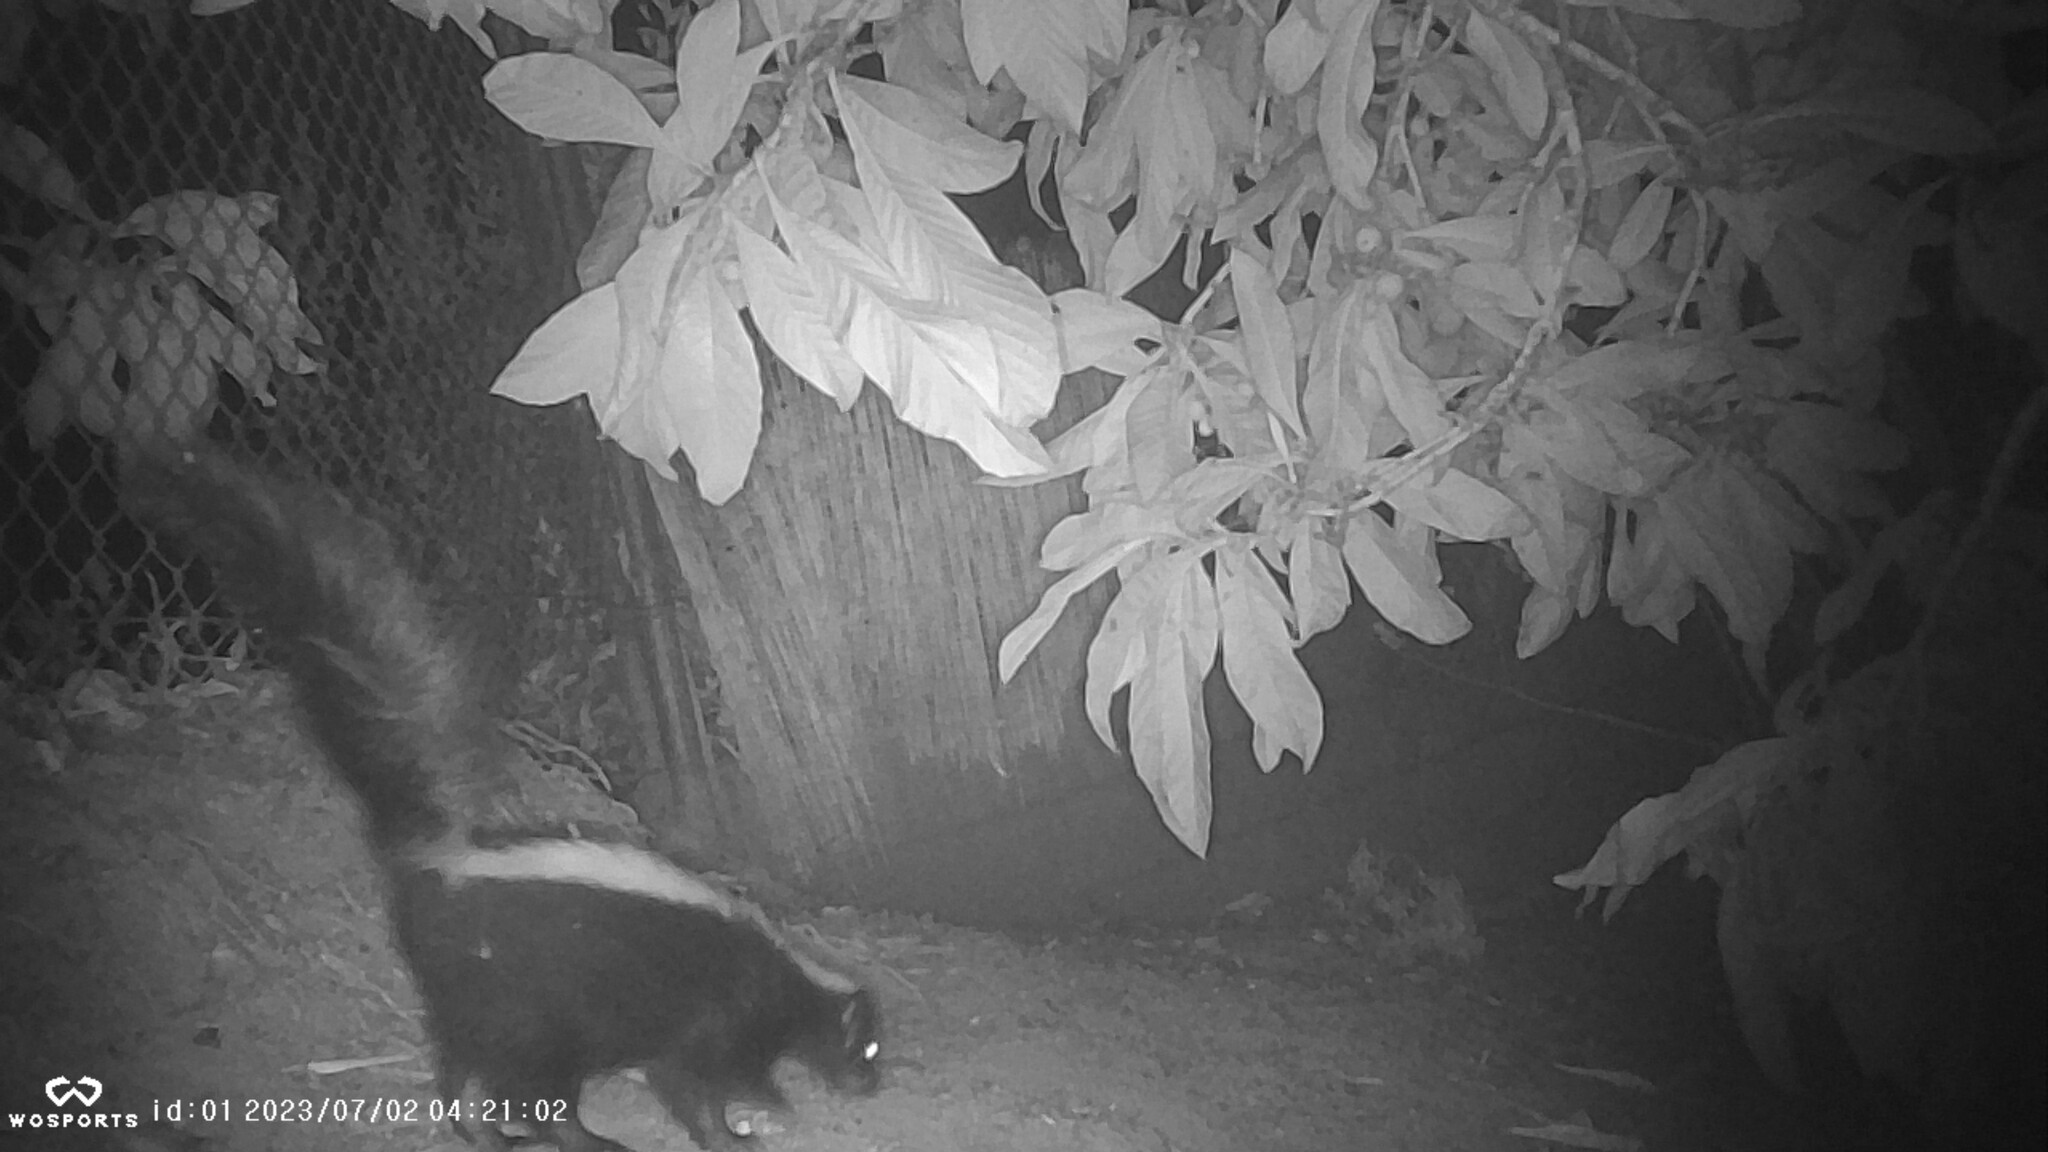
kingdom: Animalia
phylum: Chordata
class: Mammalia
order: Carnivora
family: Mephitidae
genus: Mephitis
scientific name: Mephitis mephitis
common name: Striped skunk
